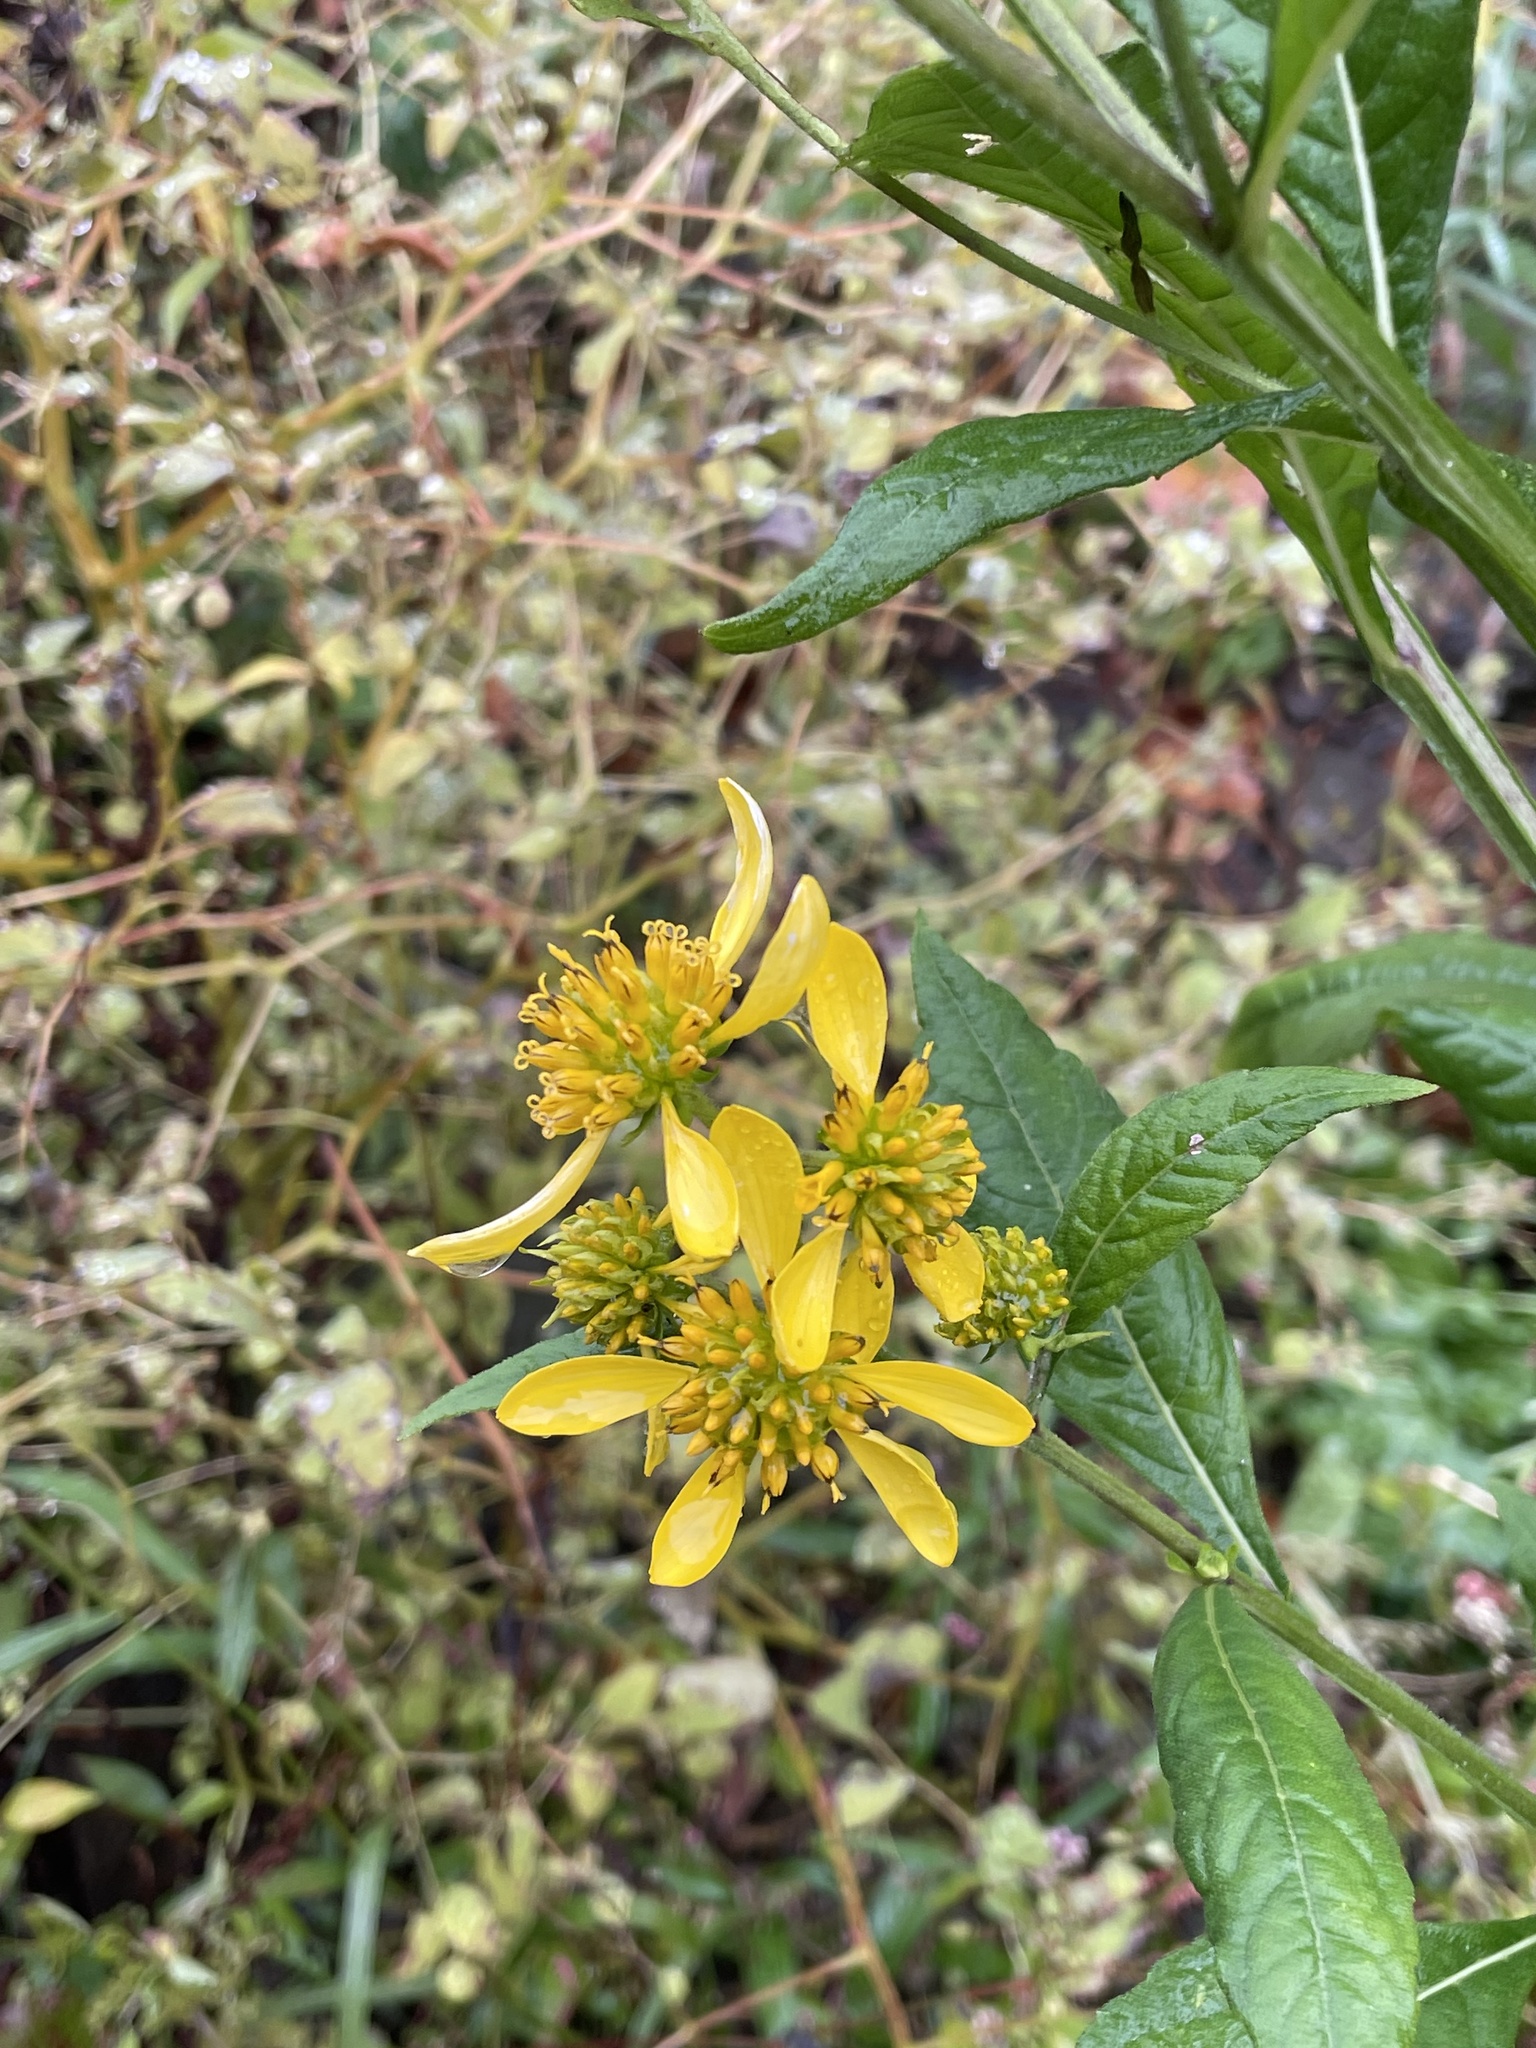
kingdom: Plantae
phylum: Tracheophyta
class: Magnoliopsida
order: Asterales
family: Asteraceae
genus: Verbesina
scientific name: Verbesina alternifolia
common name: Wingstem
